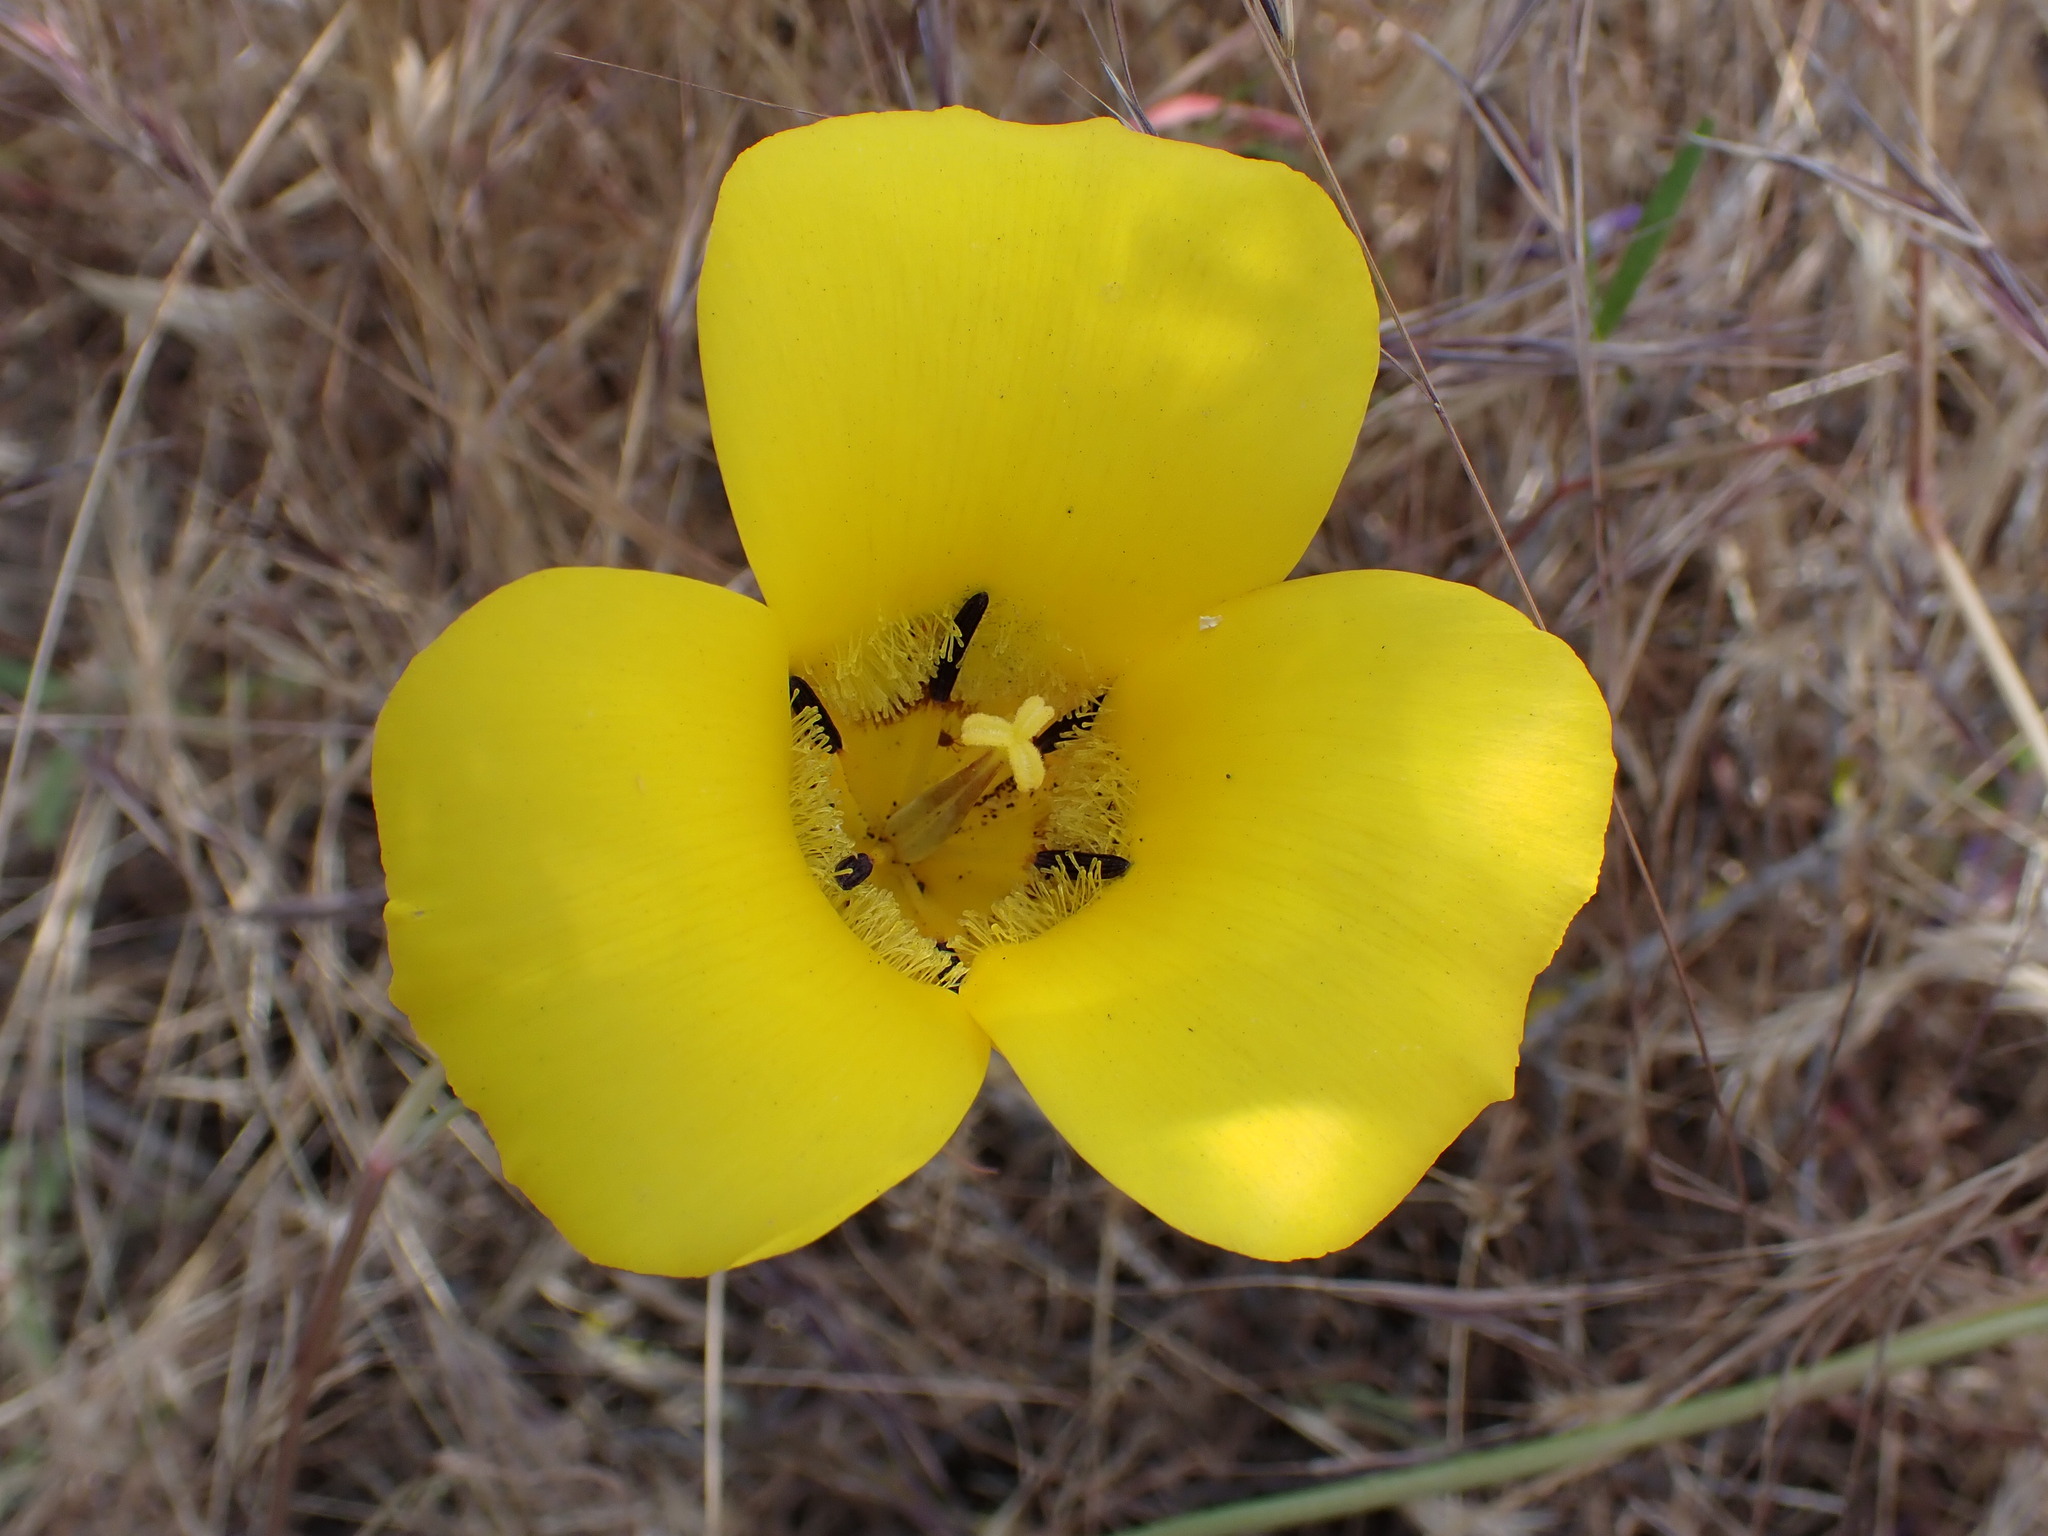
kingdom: Plantae
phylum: Tracheophyta
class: Liliopsida
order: Liliales
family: Liliaceae
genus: Calochortus
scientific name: Calochortus clavatus
